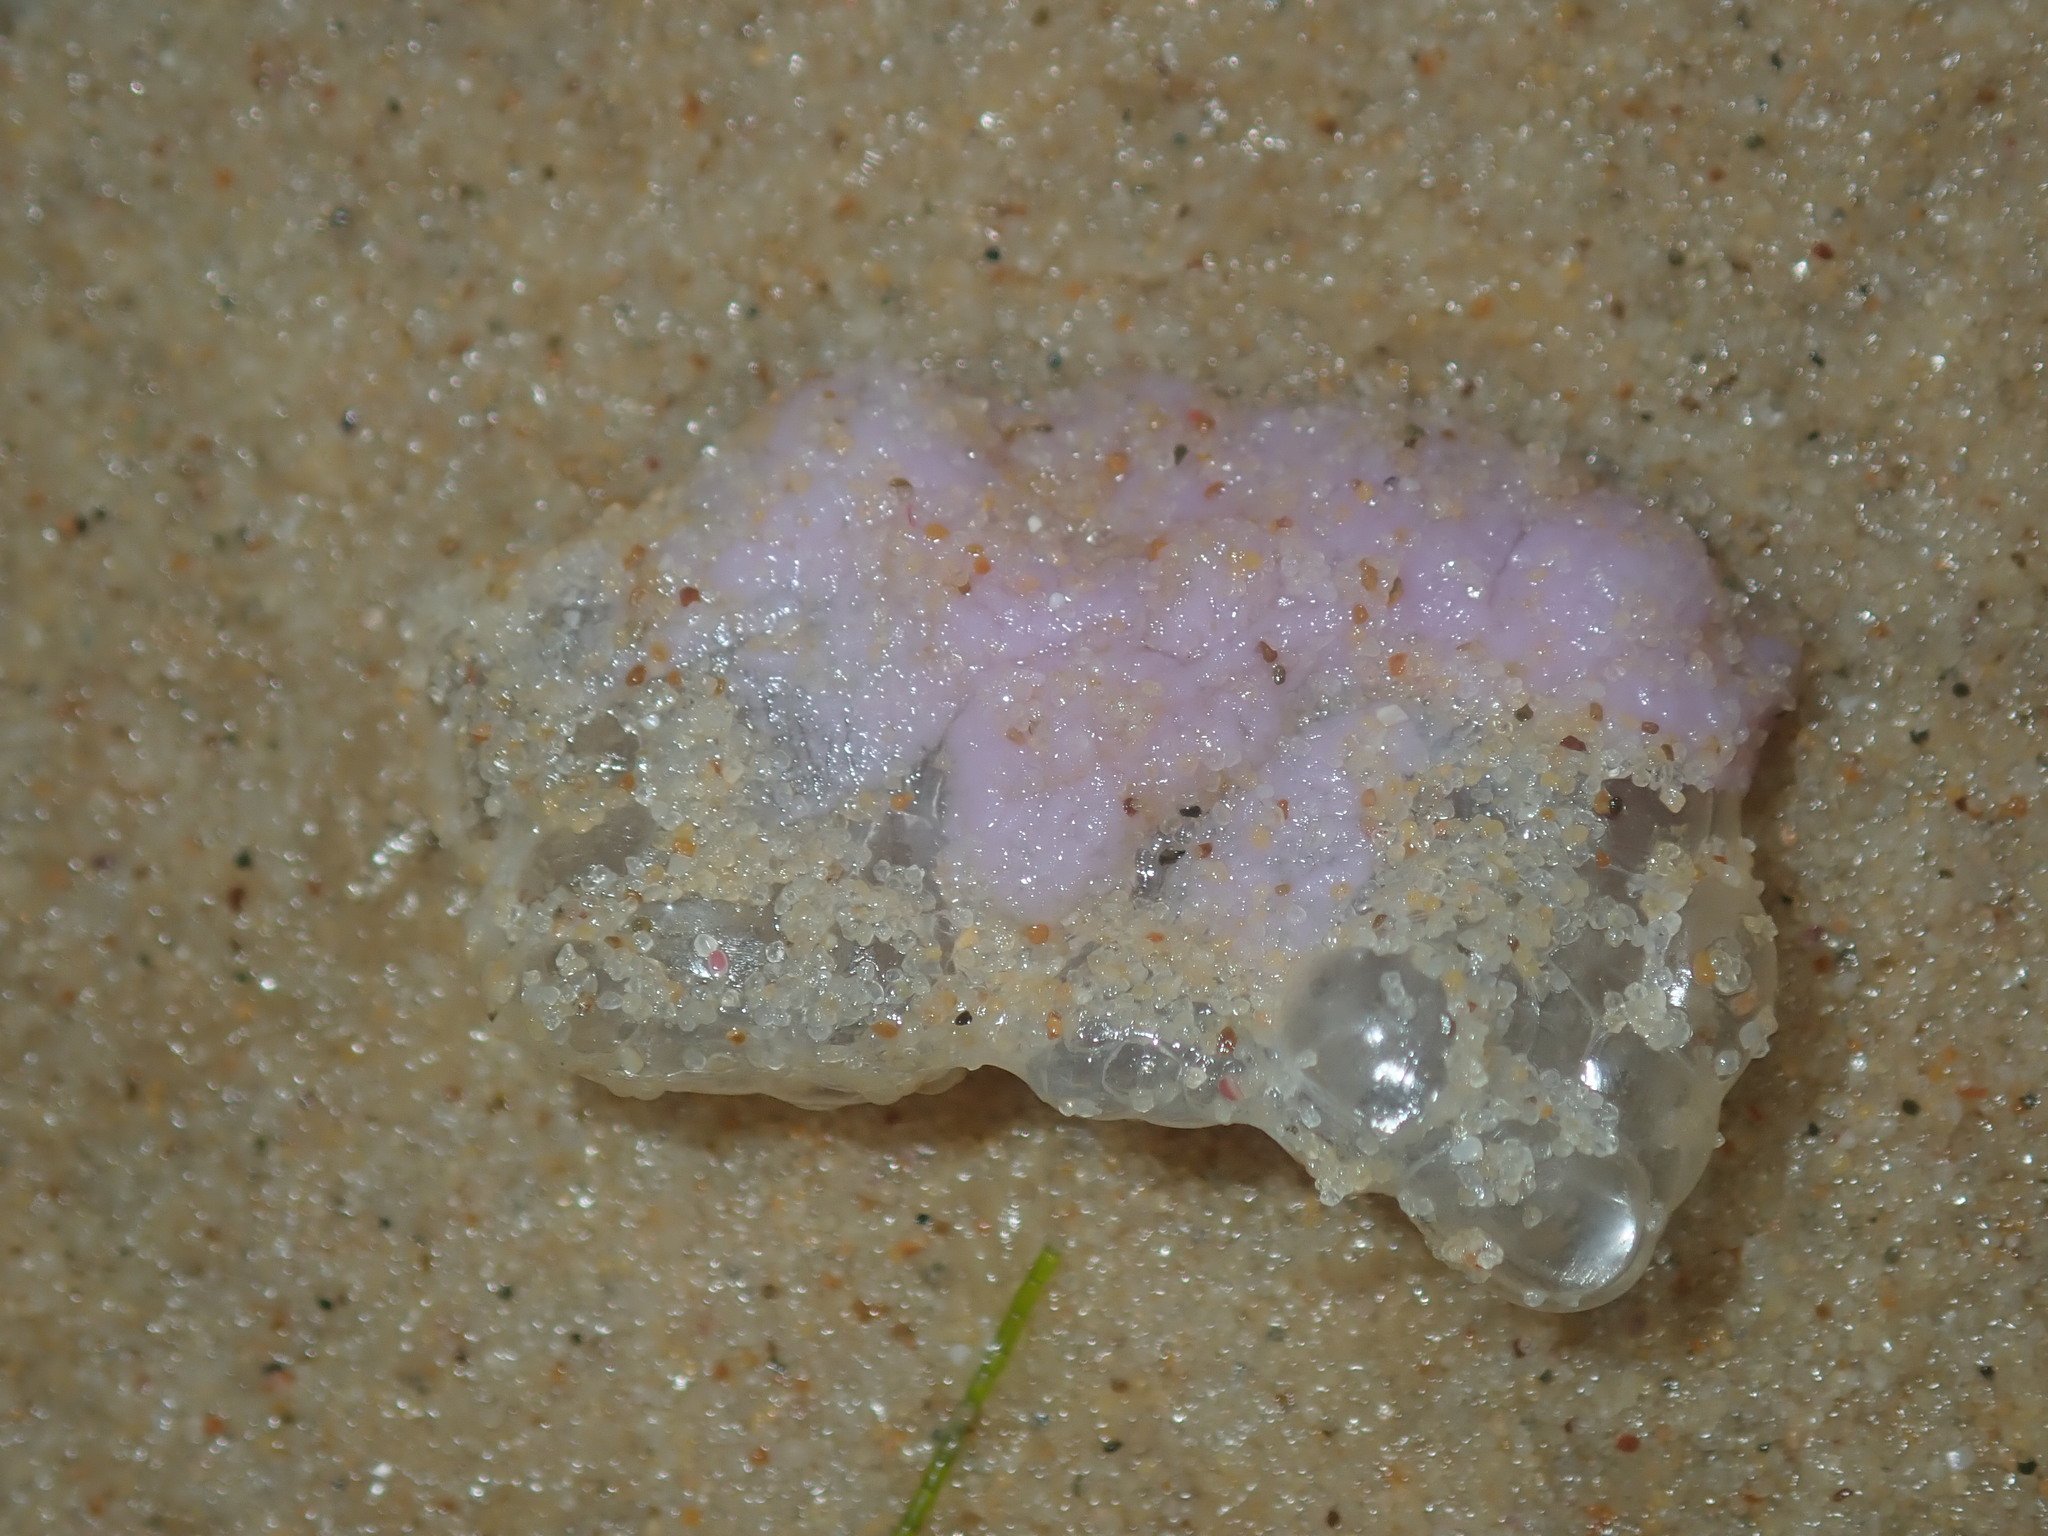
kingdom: Animalia
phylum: Mollusca
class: Gastropoda
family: Epitoniidae
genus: Janthina
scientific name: Janthina janthina
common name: Common janthina
